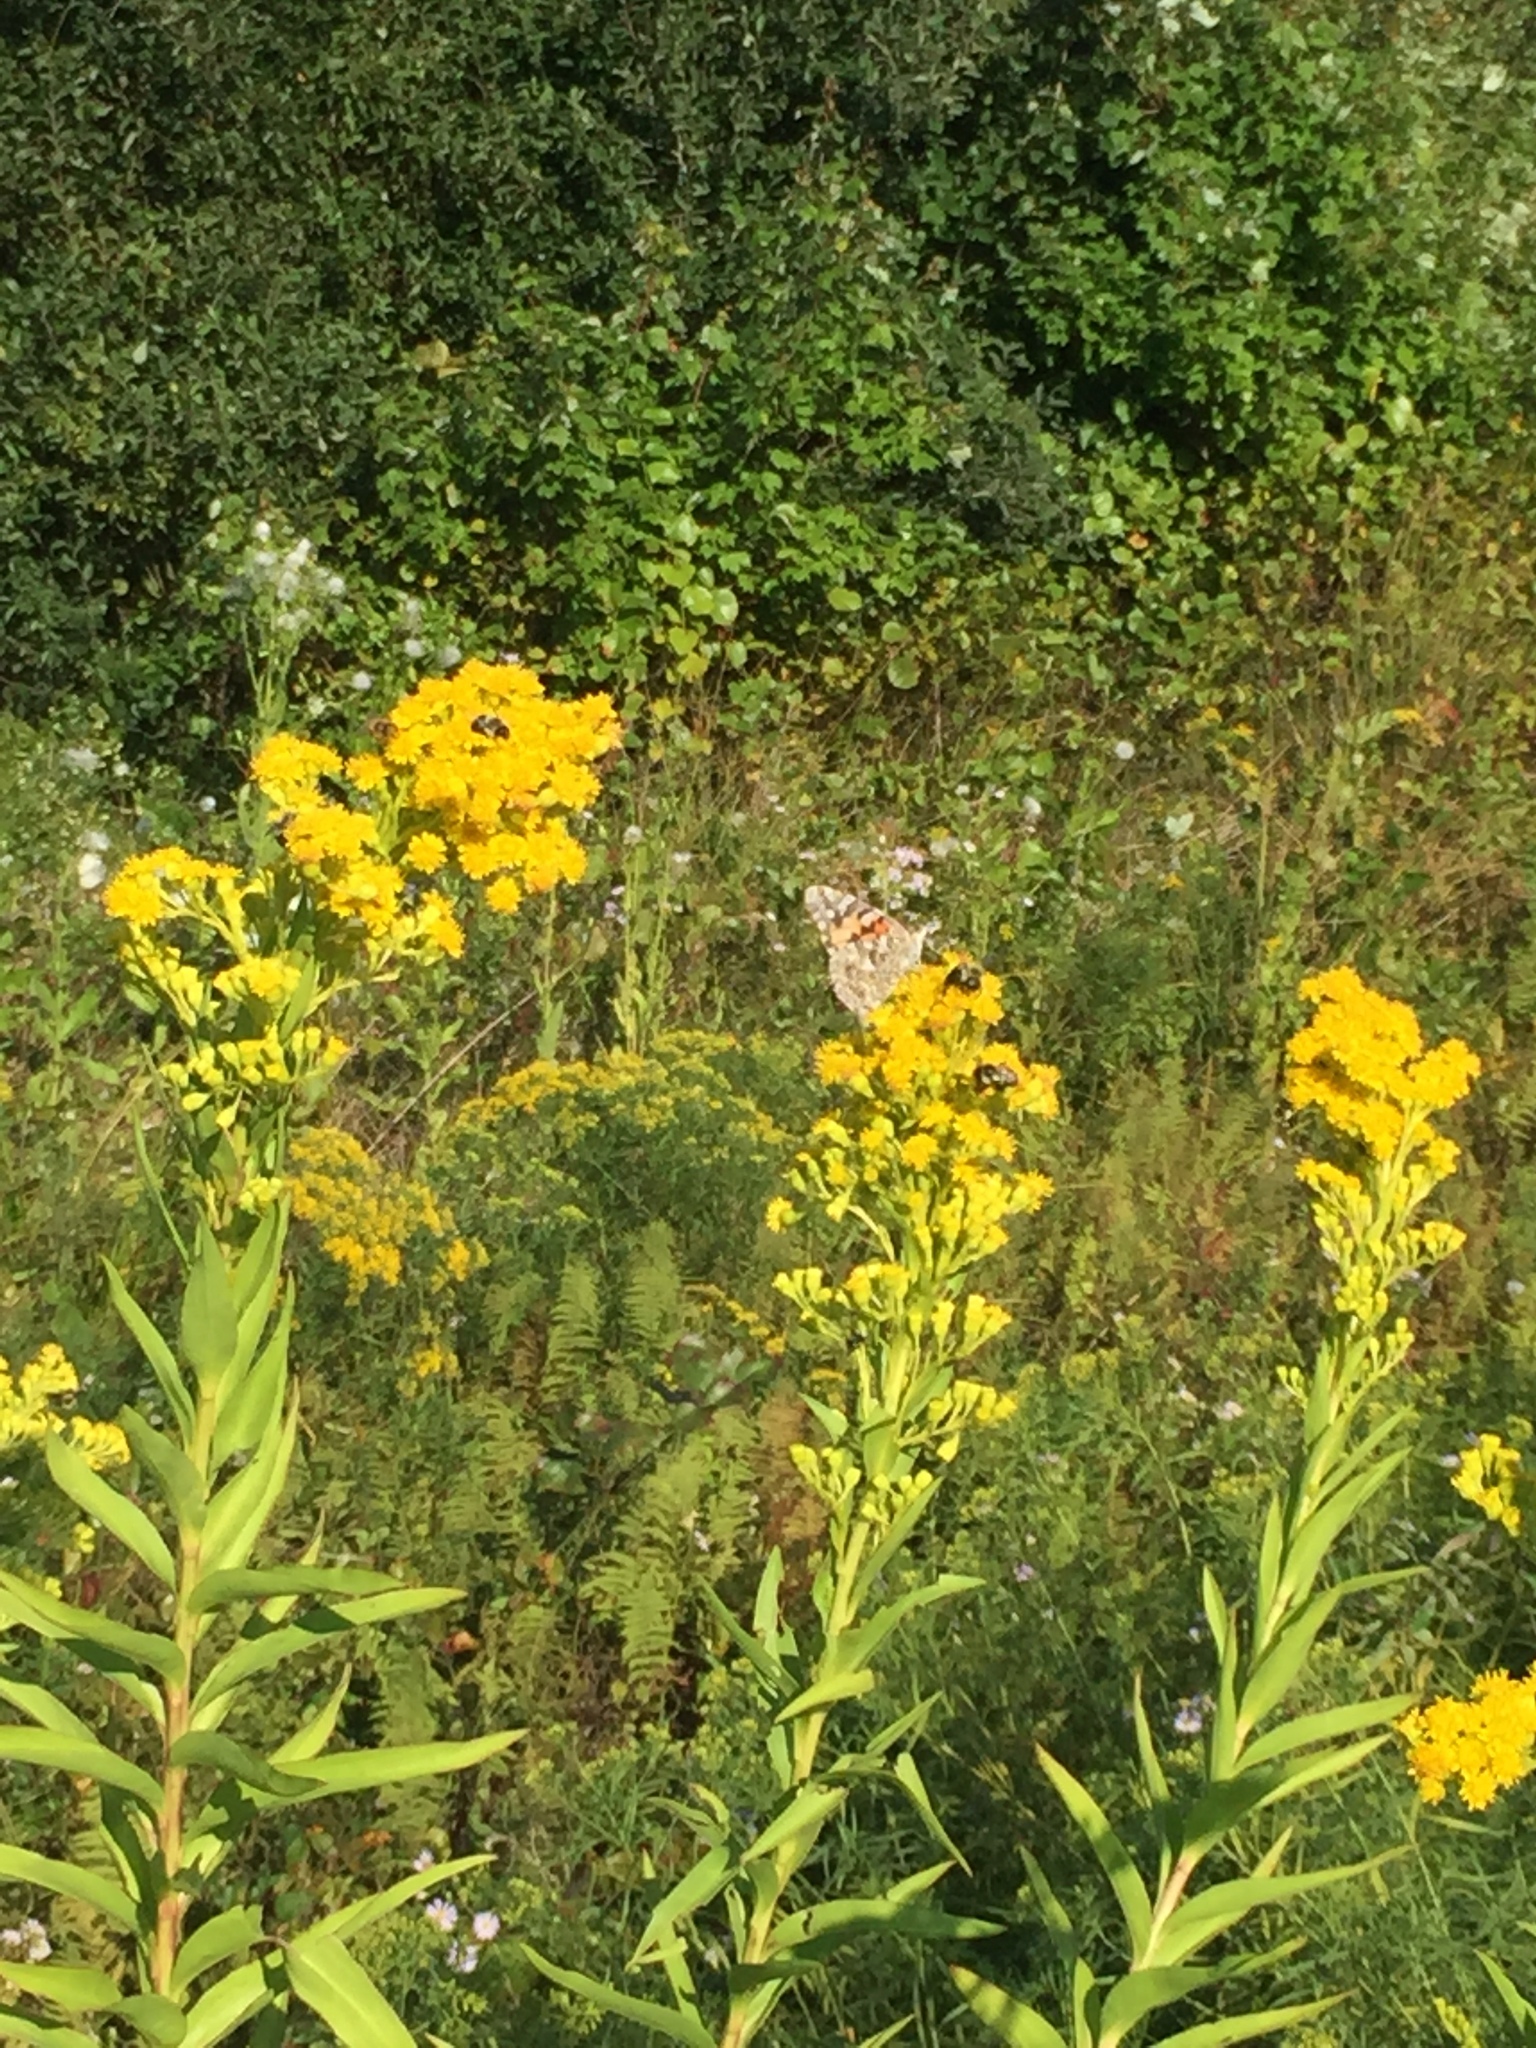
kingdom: Animalia
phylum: Arthropoda
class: Insecta
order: Lepidoptera
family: Nymphalidae
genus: Vanessa
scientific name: Vanessa cardui
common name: Painted lady
